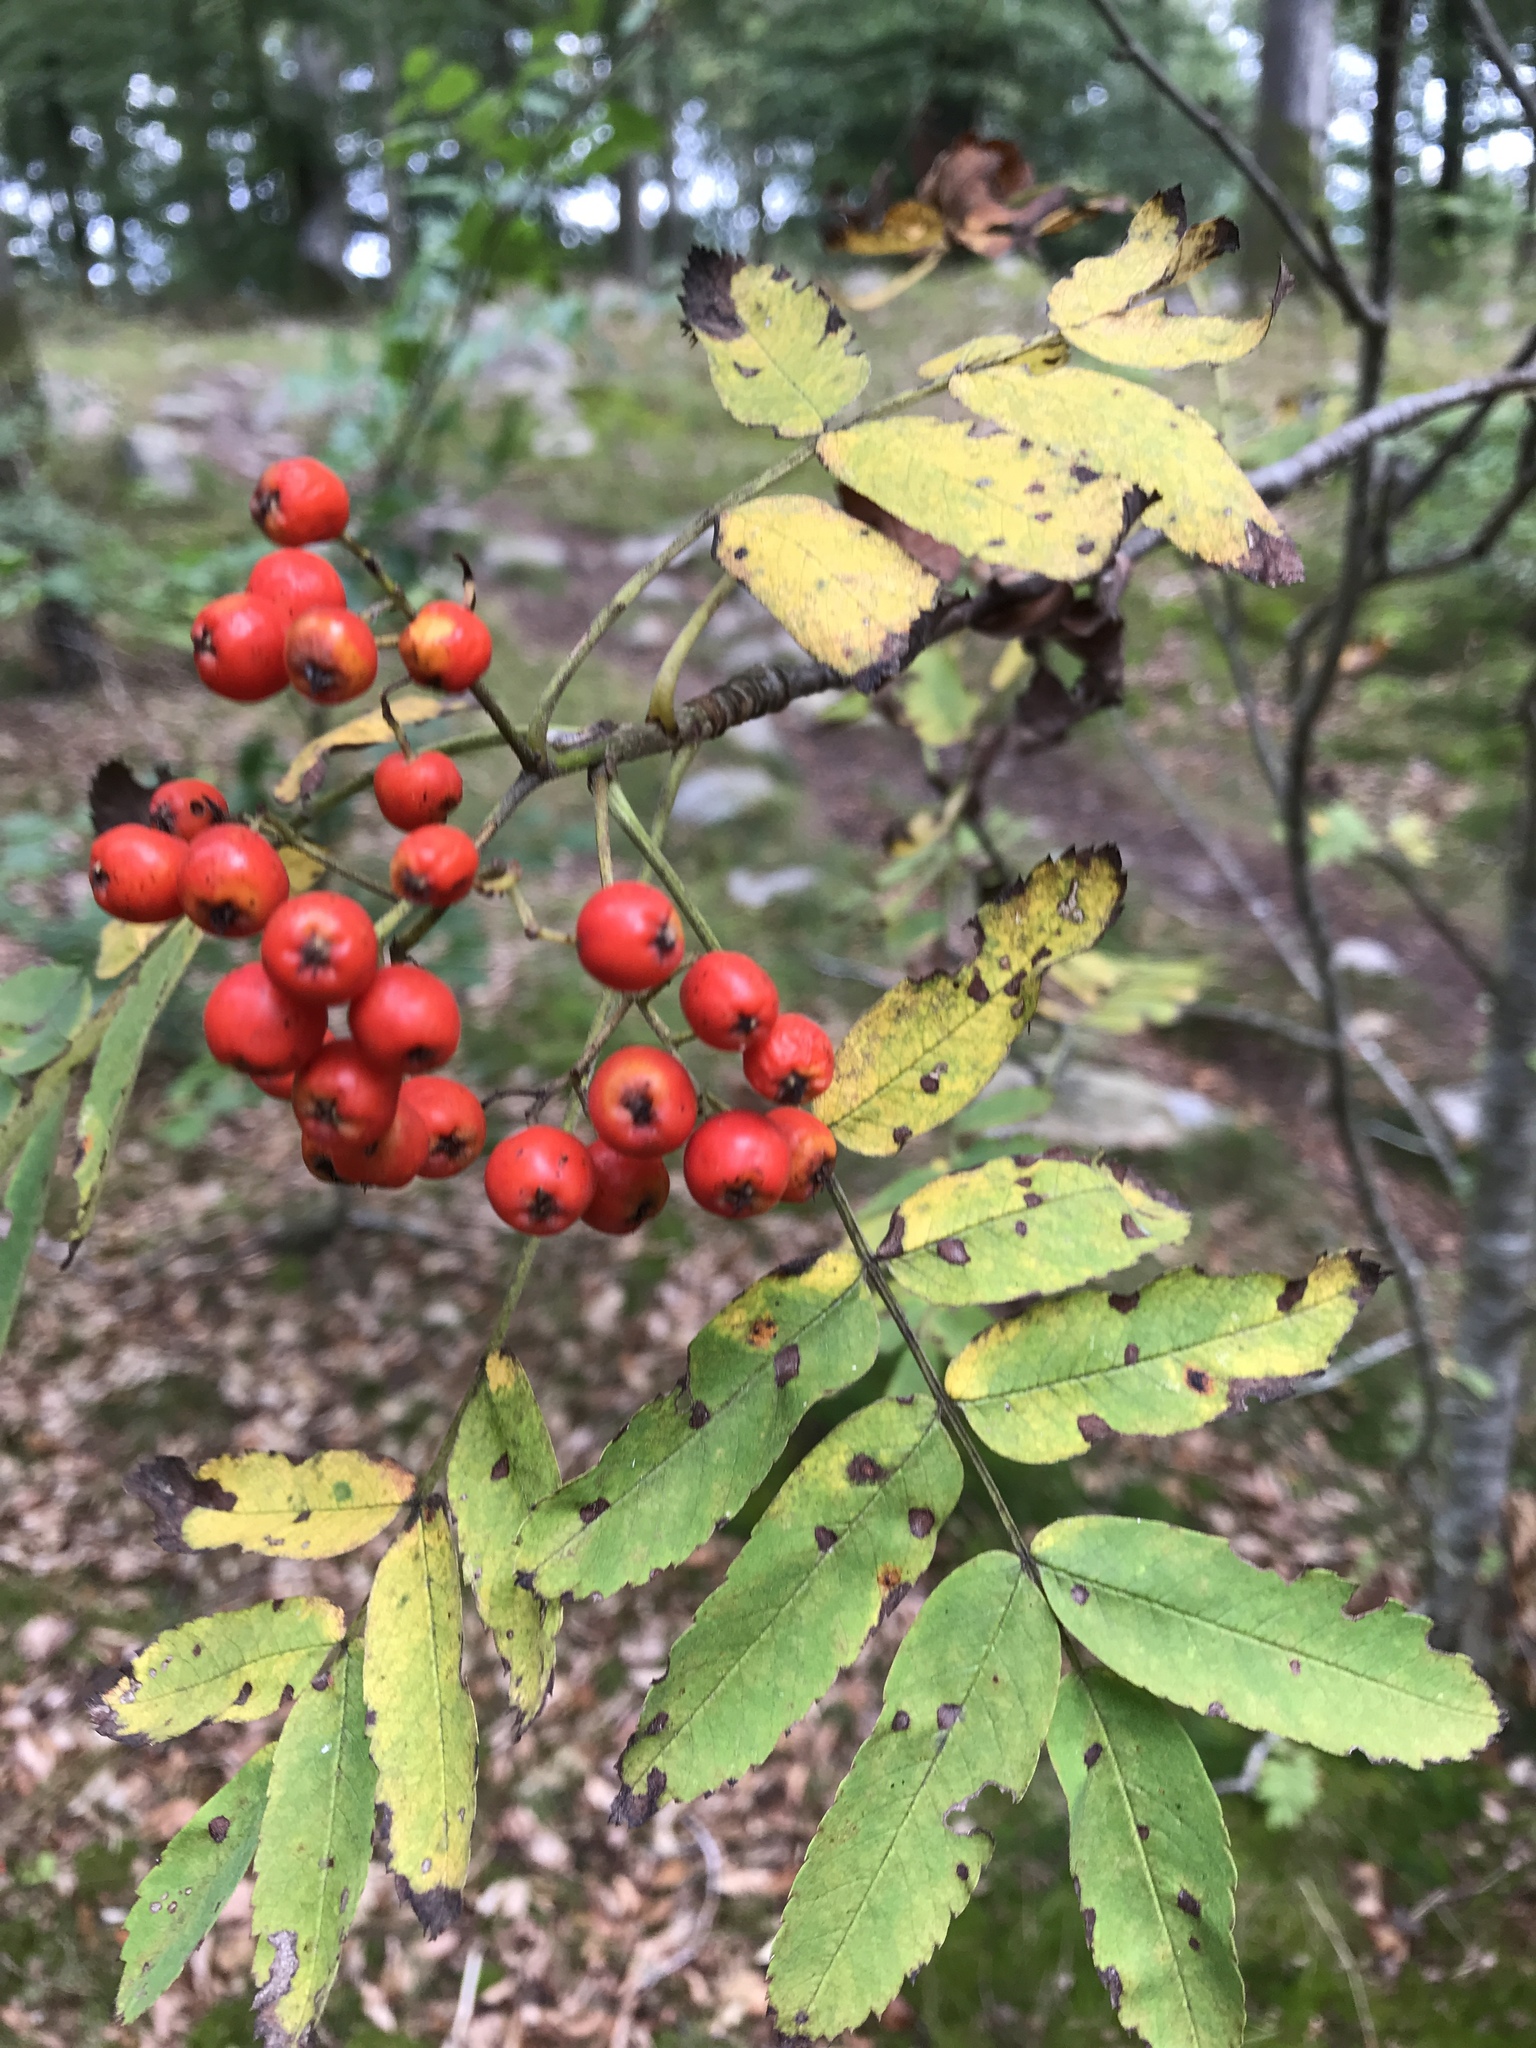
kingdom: Plantae
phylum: Tracheophyta
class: Magnoliopsida
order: Rosales
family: Rosaceae
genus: Sorbus
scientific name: Sorbus aucuparia
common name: Rowan
